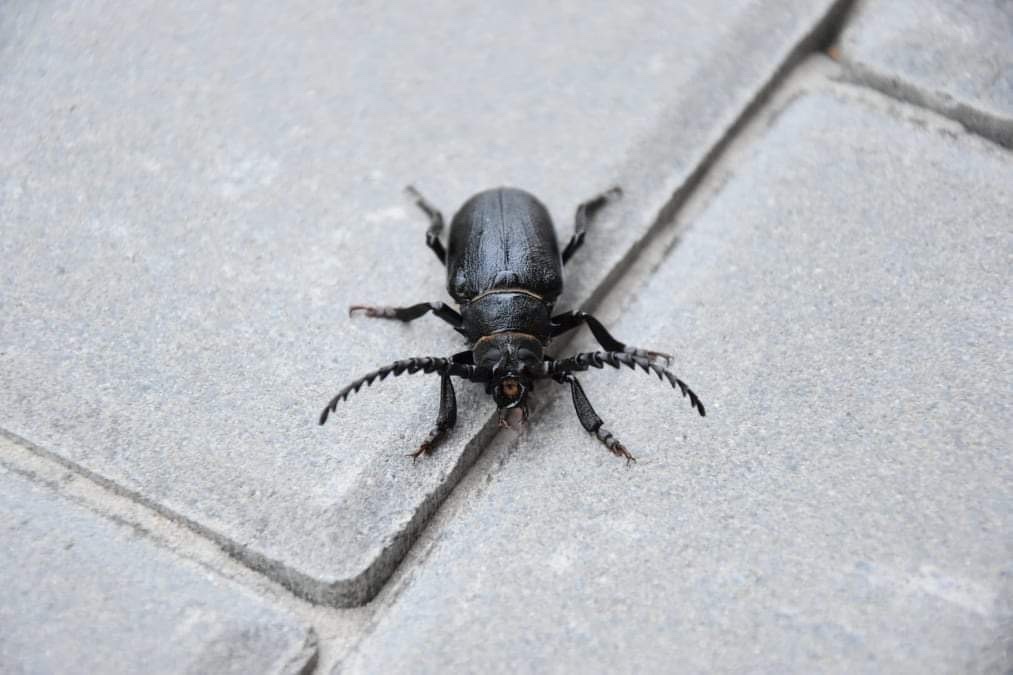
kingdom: Animalia
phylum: Arthropoda
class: Insecta
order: Coleoptera
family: Cerambycidae
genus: Prionus
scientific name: Prionus coriarius
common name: Tanner beetle
